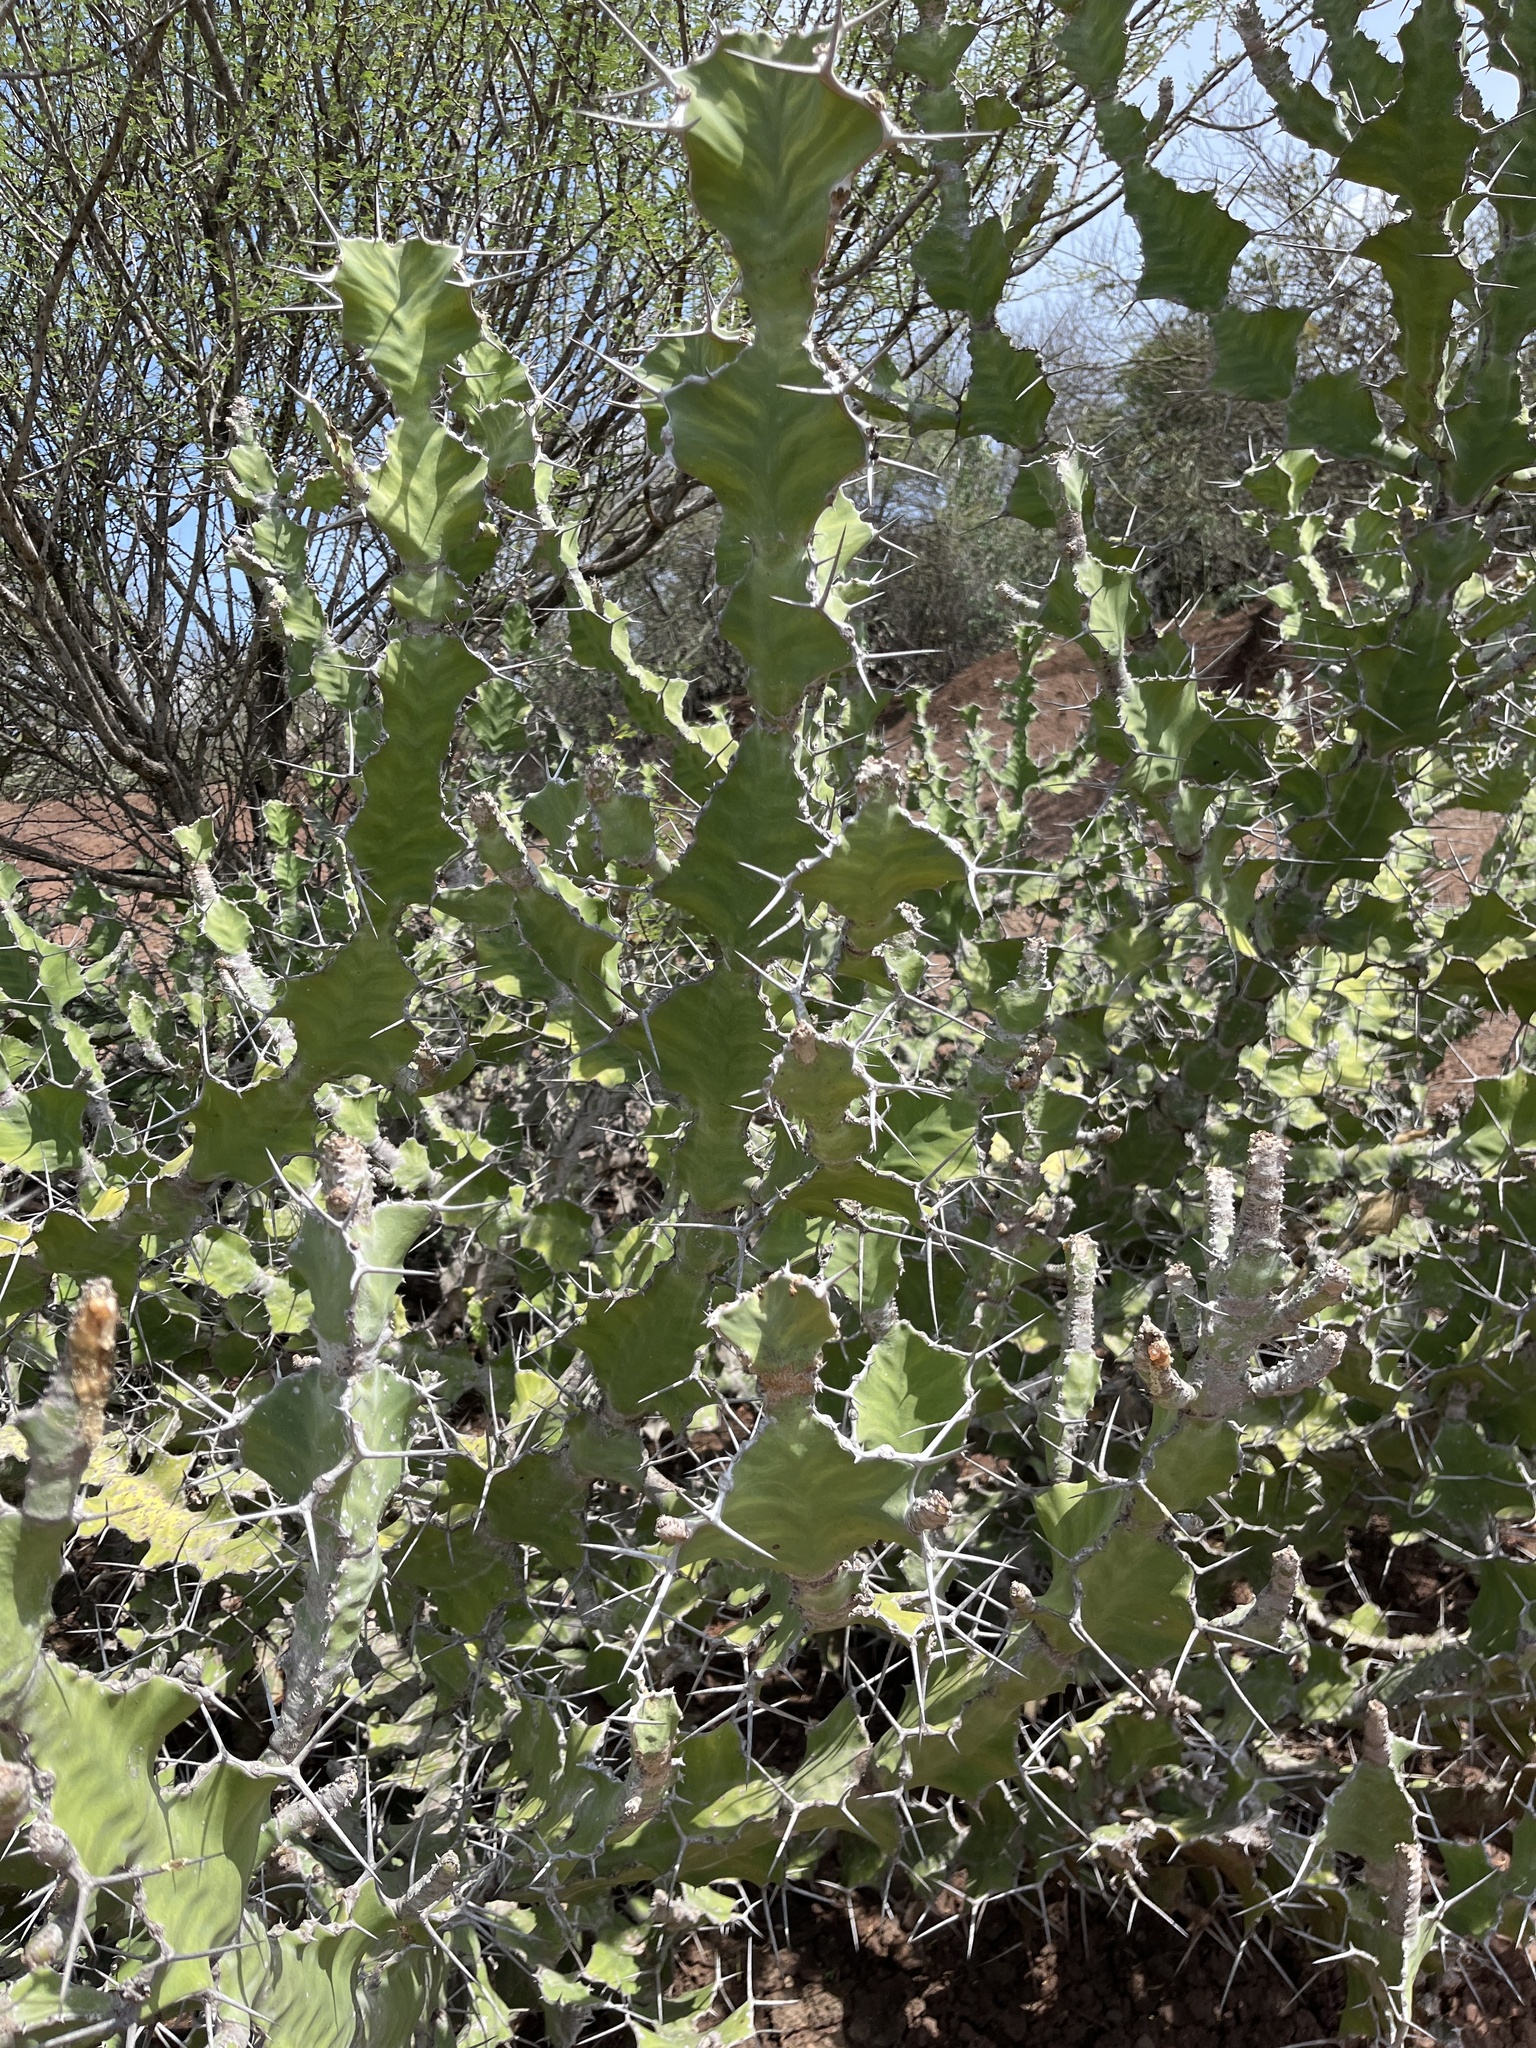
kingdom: Plantae
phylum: Tracheophyta
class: Magnoliopsida
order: Malpighiales
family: Euphorbiaceae
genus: Euphorbia
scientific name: Euphorbia breviarticulata
